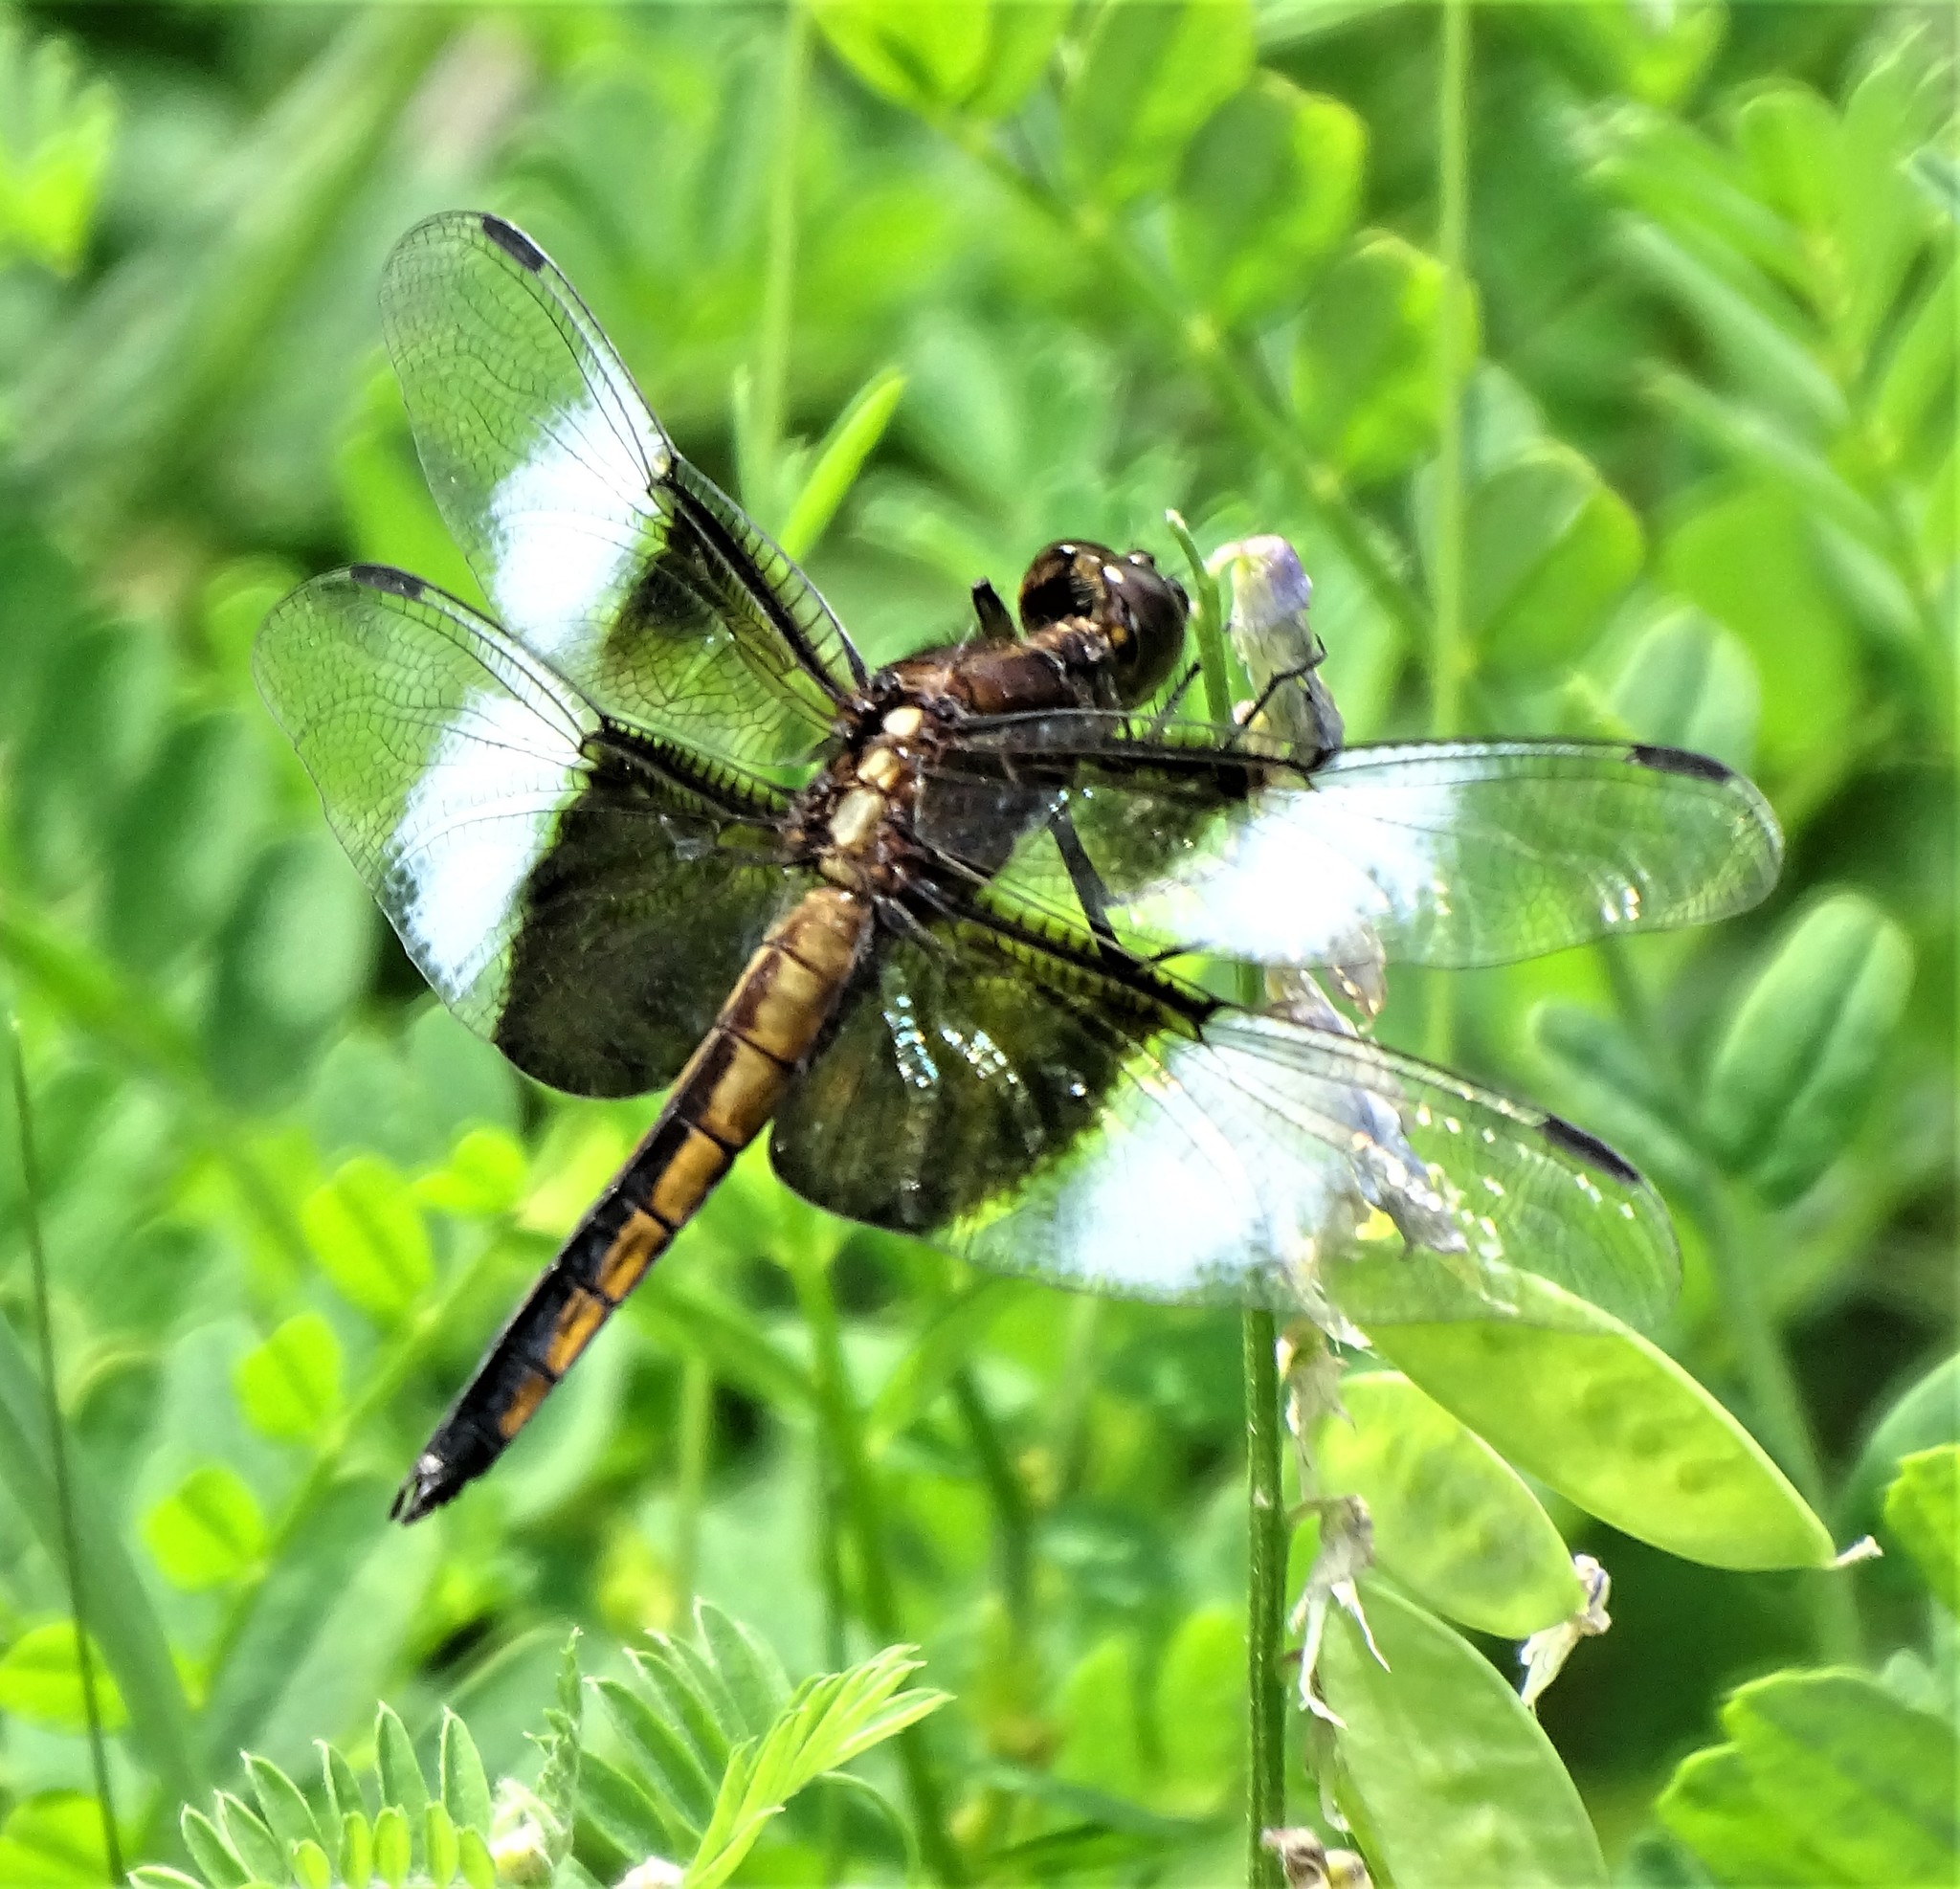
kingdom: Animalia
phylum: Arthropoda
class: Insecta
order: Odonata
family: Libellulidae
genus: Libellula
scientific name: Libellula luctuosa
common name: Widow skimmer
